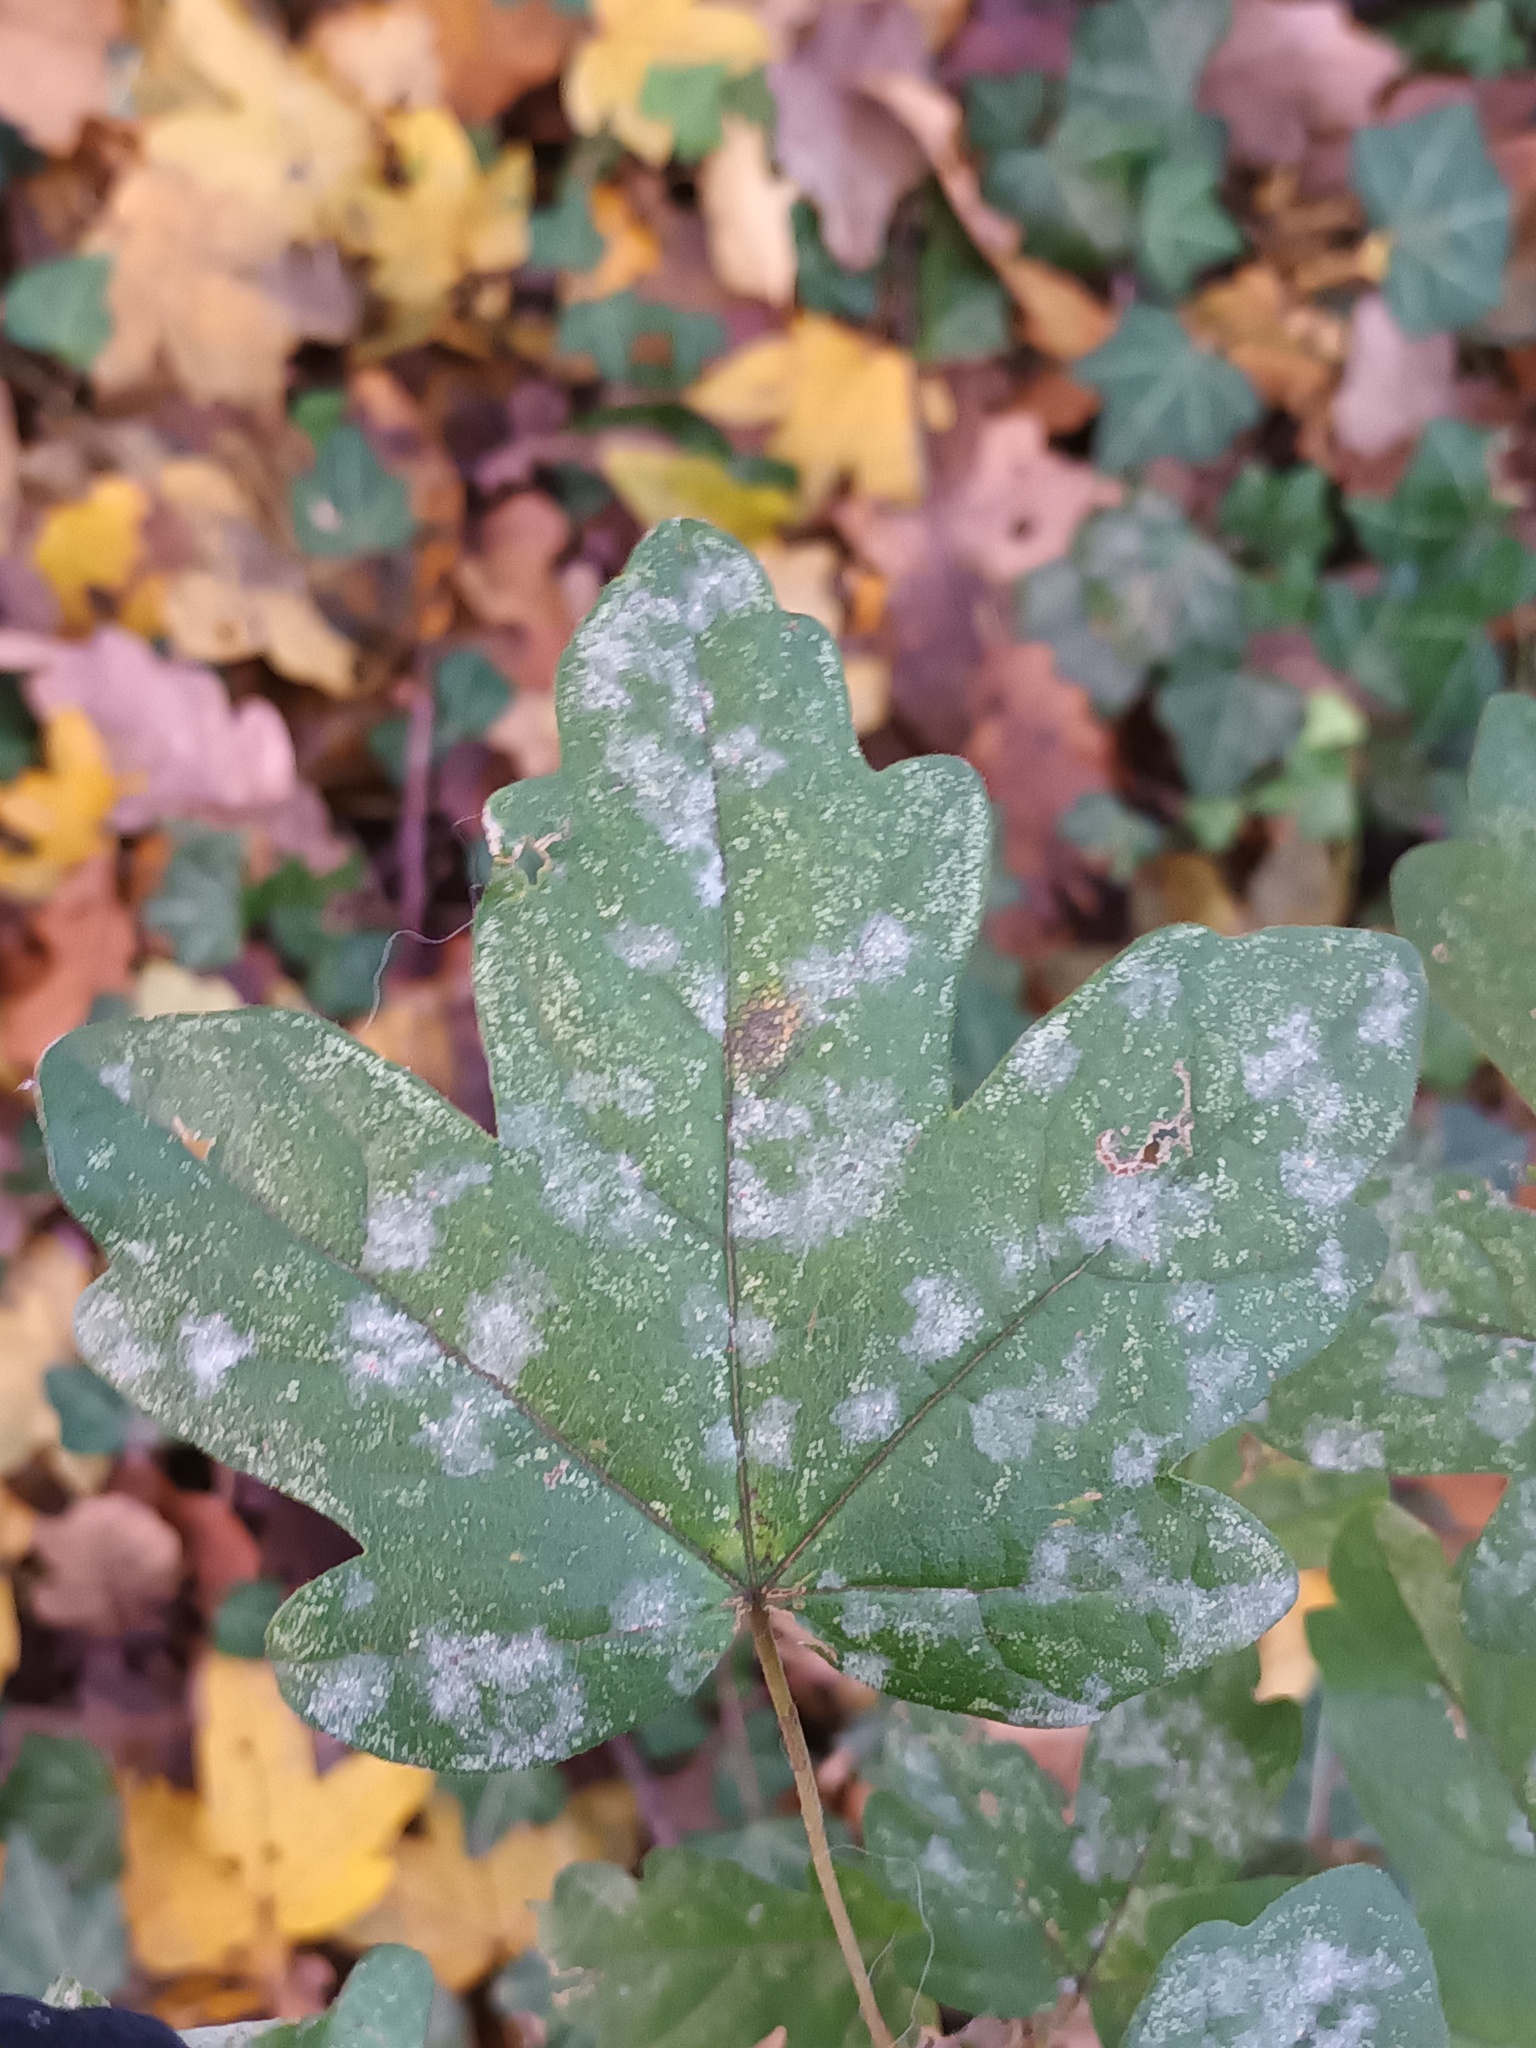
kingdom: Fungi
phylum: Ascomycota
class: Leotiomycetes
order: Helotiales
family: Erysiphaceae
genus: Sawadaea
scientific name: Sawadaea bicornis
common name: Maple mildew
